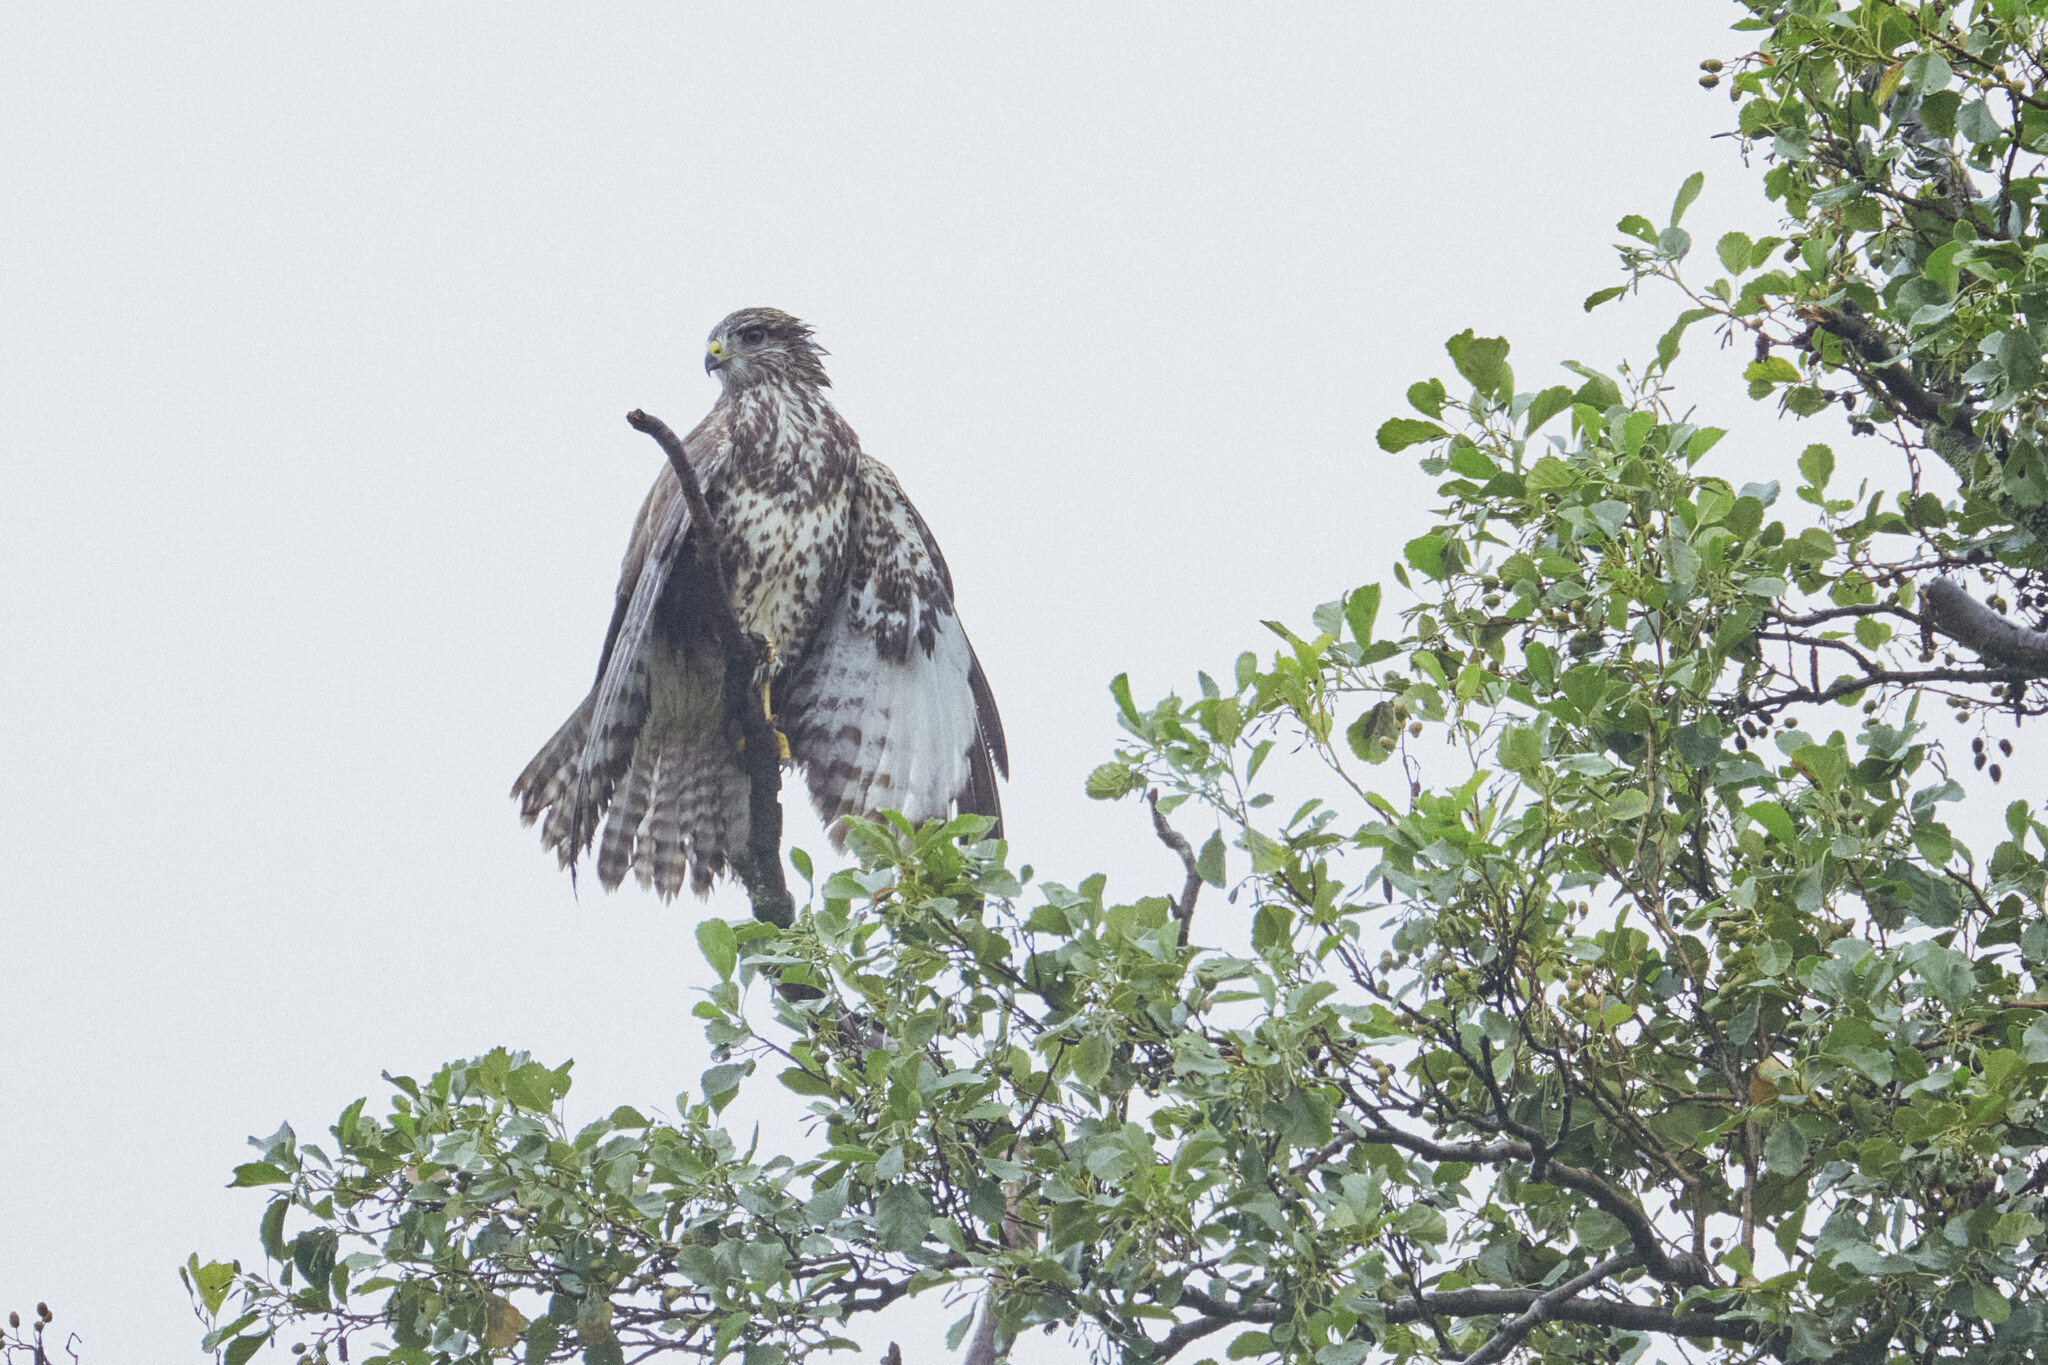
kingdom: Animalia
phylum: Chordata
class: Aves
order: Accipitriformes
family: Accipitridae
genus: Buteo
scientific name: Buteo buteo
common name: Common buzzard
